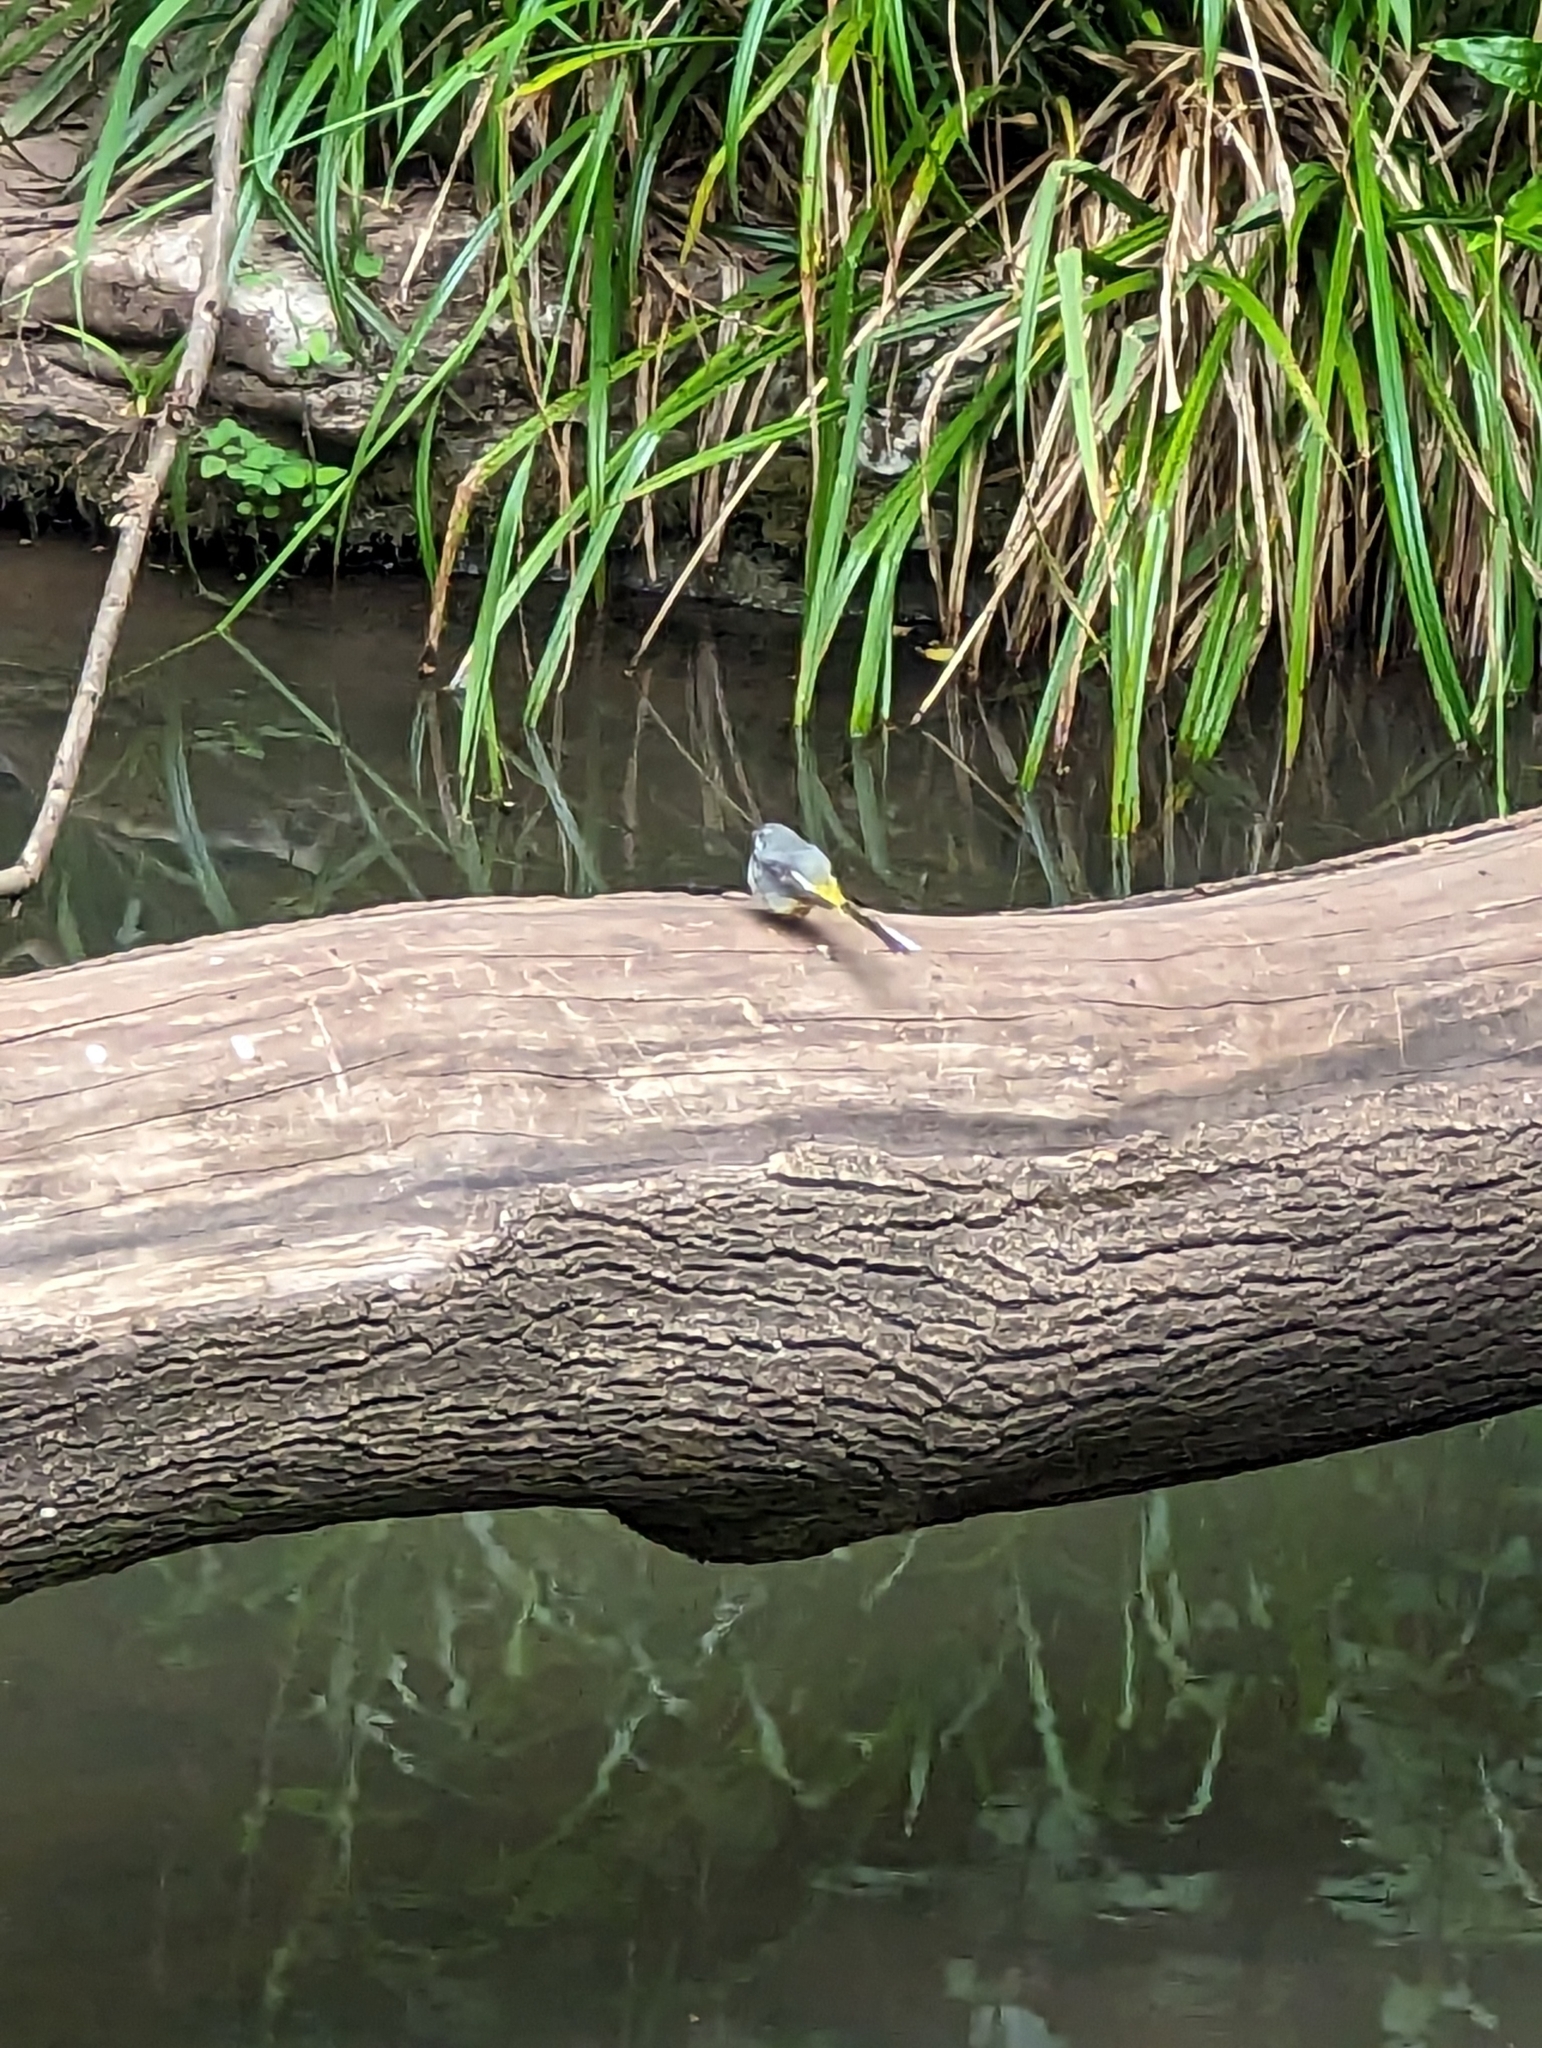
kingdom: Animalia
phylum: Chordata
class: Aves
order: Passeriformes
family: Motacillidae
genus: Motacilla
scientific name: Motacilla cinerea
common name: Grey wagtail
